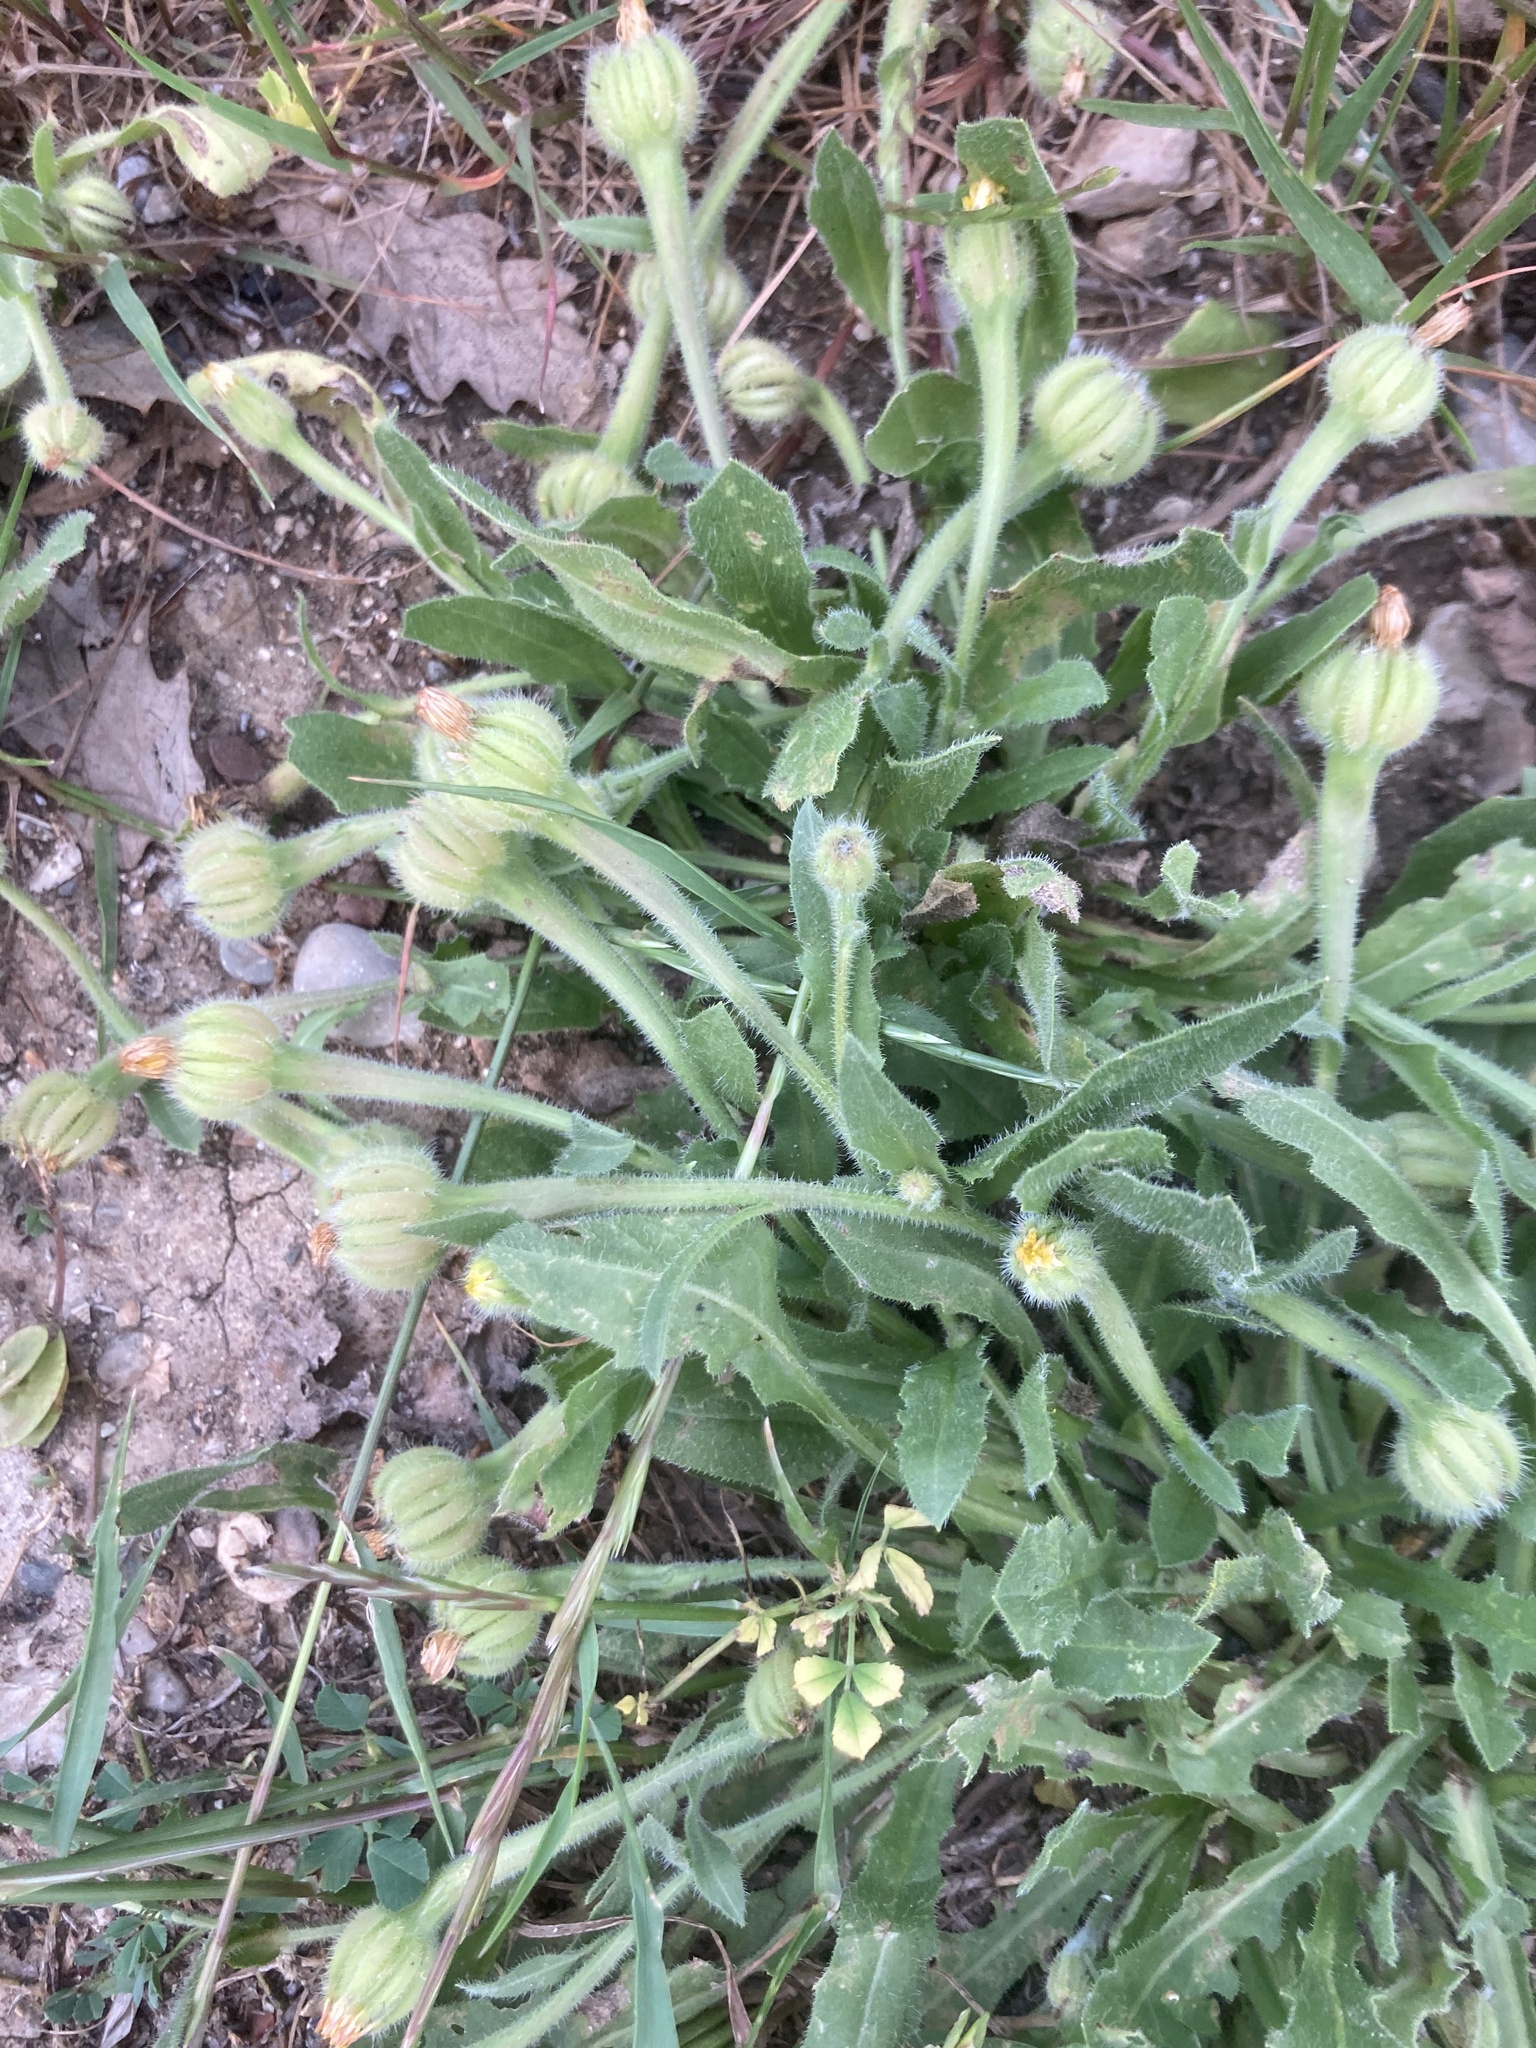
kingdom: Plantae
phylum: Tracheophyta
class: Magnoliopsida
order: Asterales
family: Asteraceae
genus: Hedypnois
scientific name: Hedypnois rhagadioloides
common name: Cretan weed
